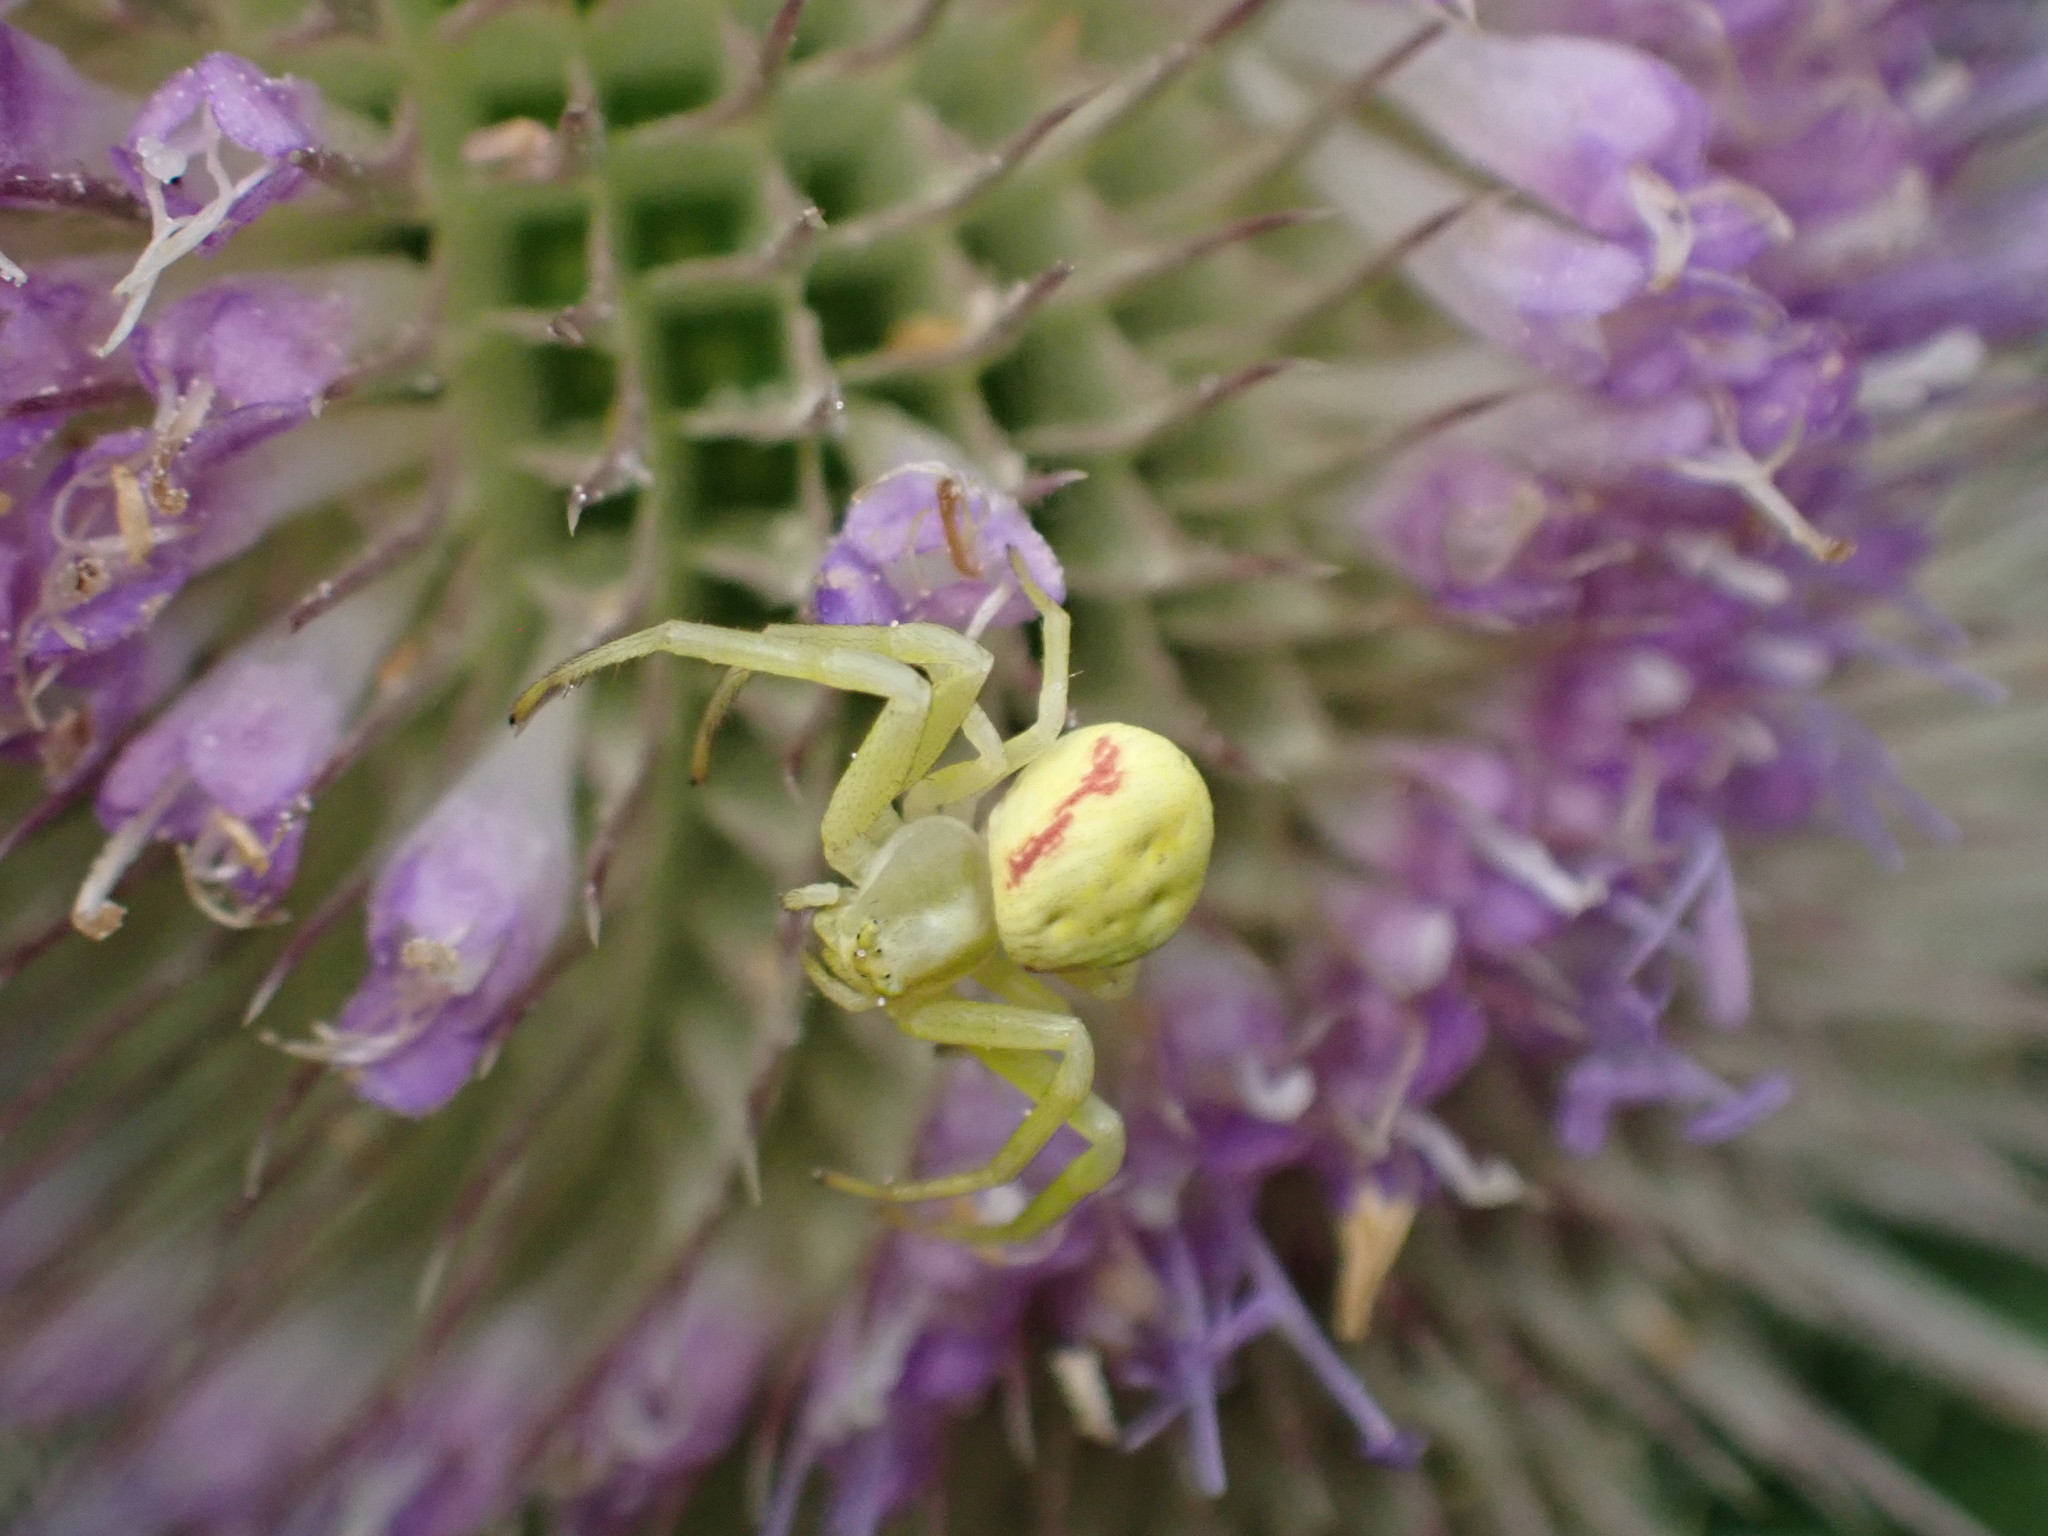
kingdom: Animalia
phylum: Arthropoda
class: Arachnida
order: Araneae
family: Thomisidae
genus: Misumena
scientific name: Misumena vatia
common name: Goldenrod crab spider
